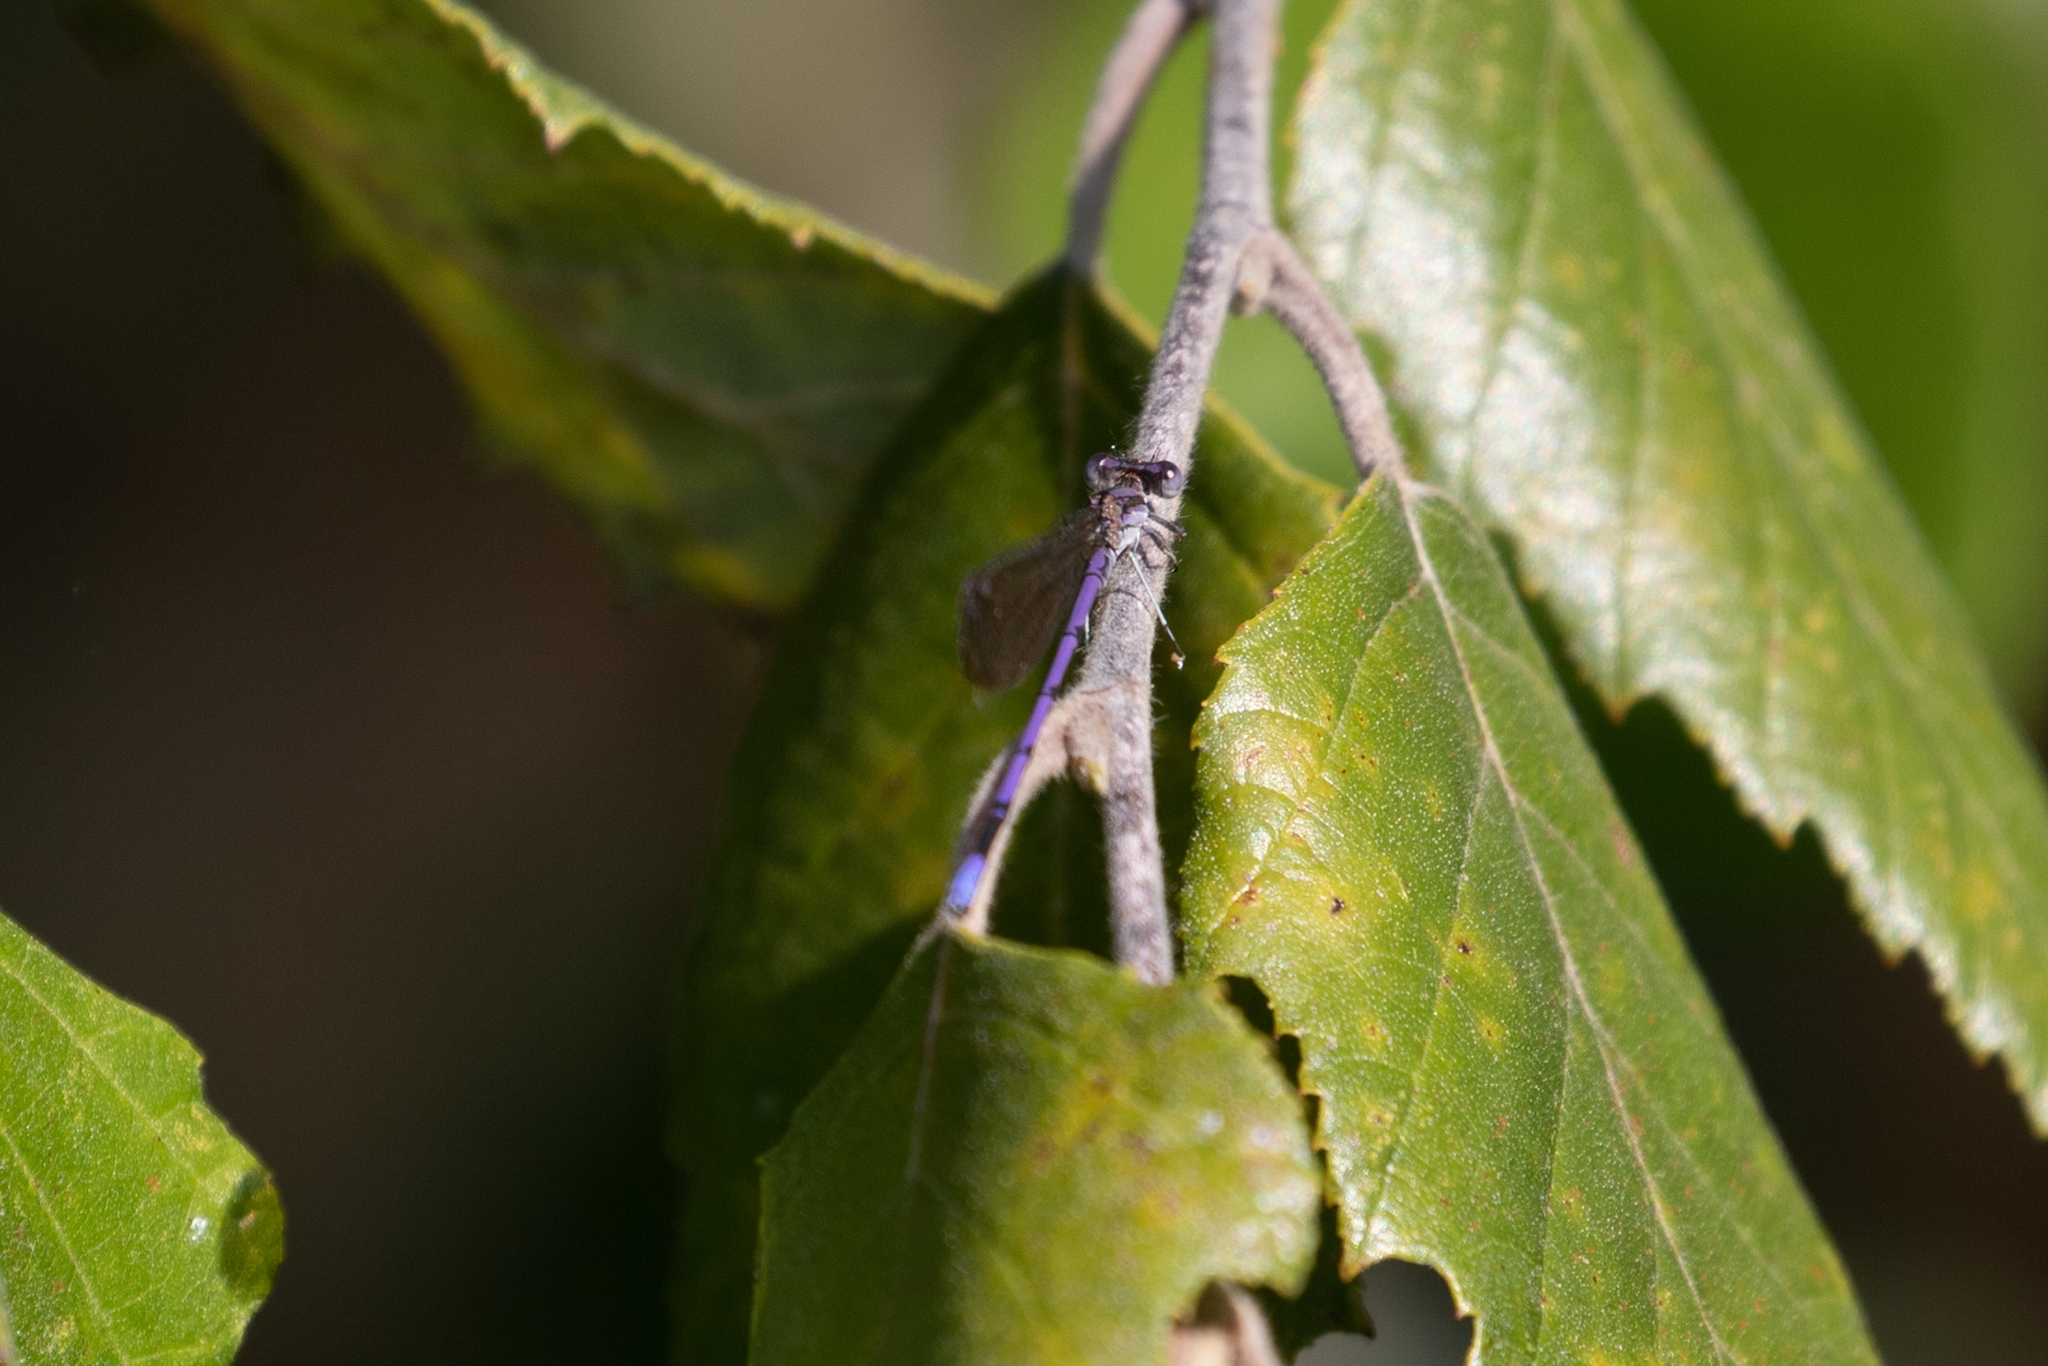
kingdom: Animalia
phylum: Arthropoda
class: Insecta
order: Odonata
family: Coenagrionidae
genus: Argia
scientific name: Argia fumipennis
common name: Variable dancer
